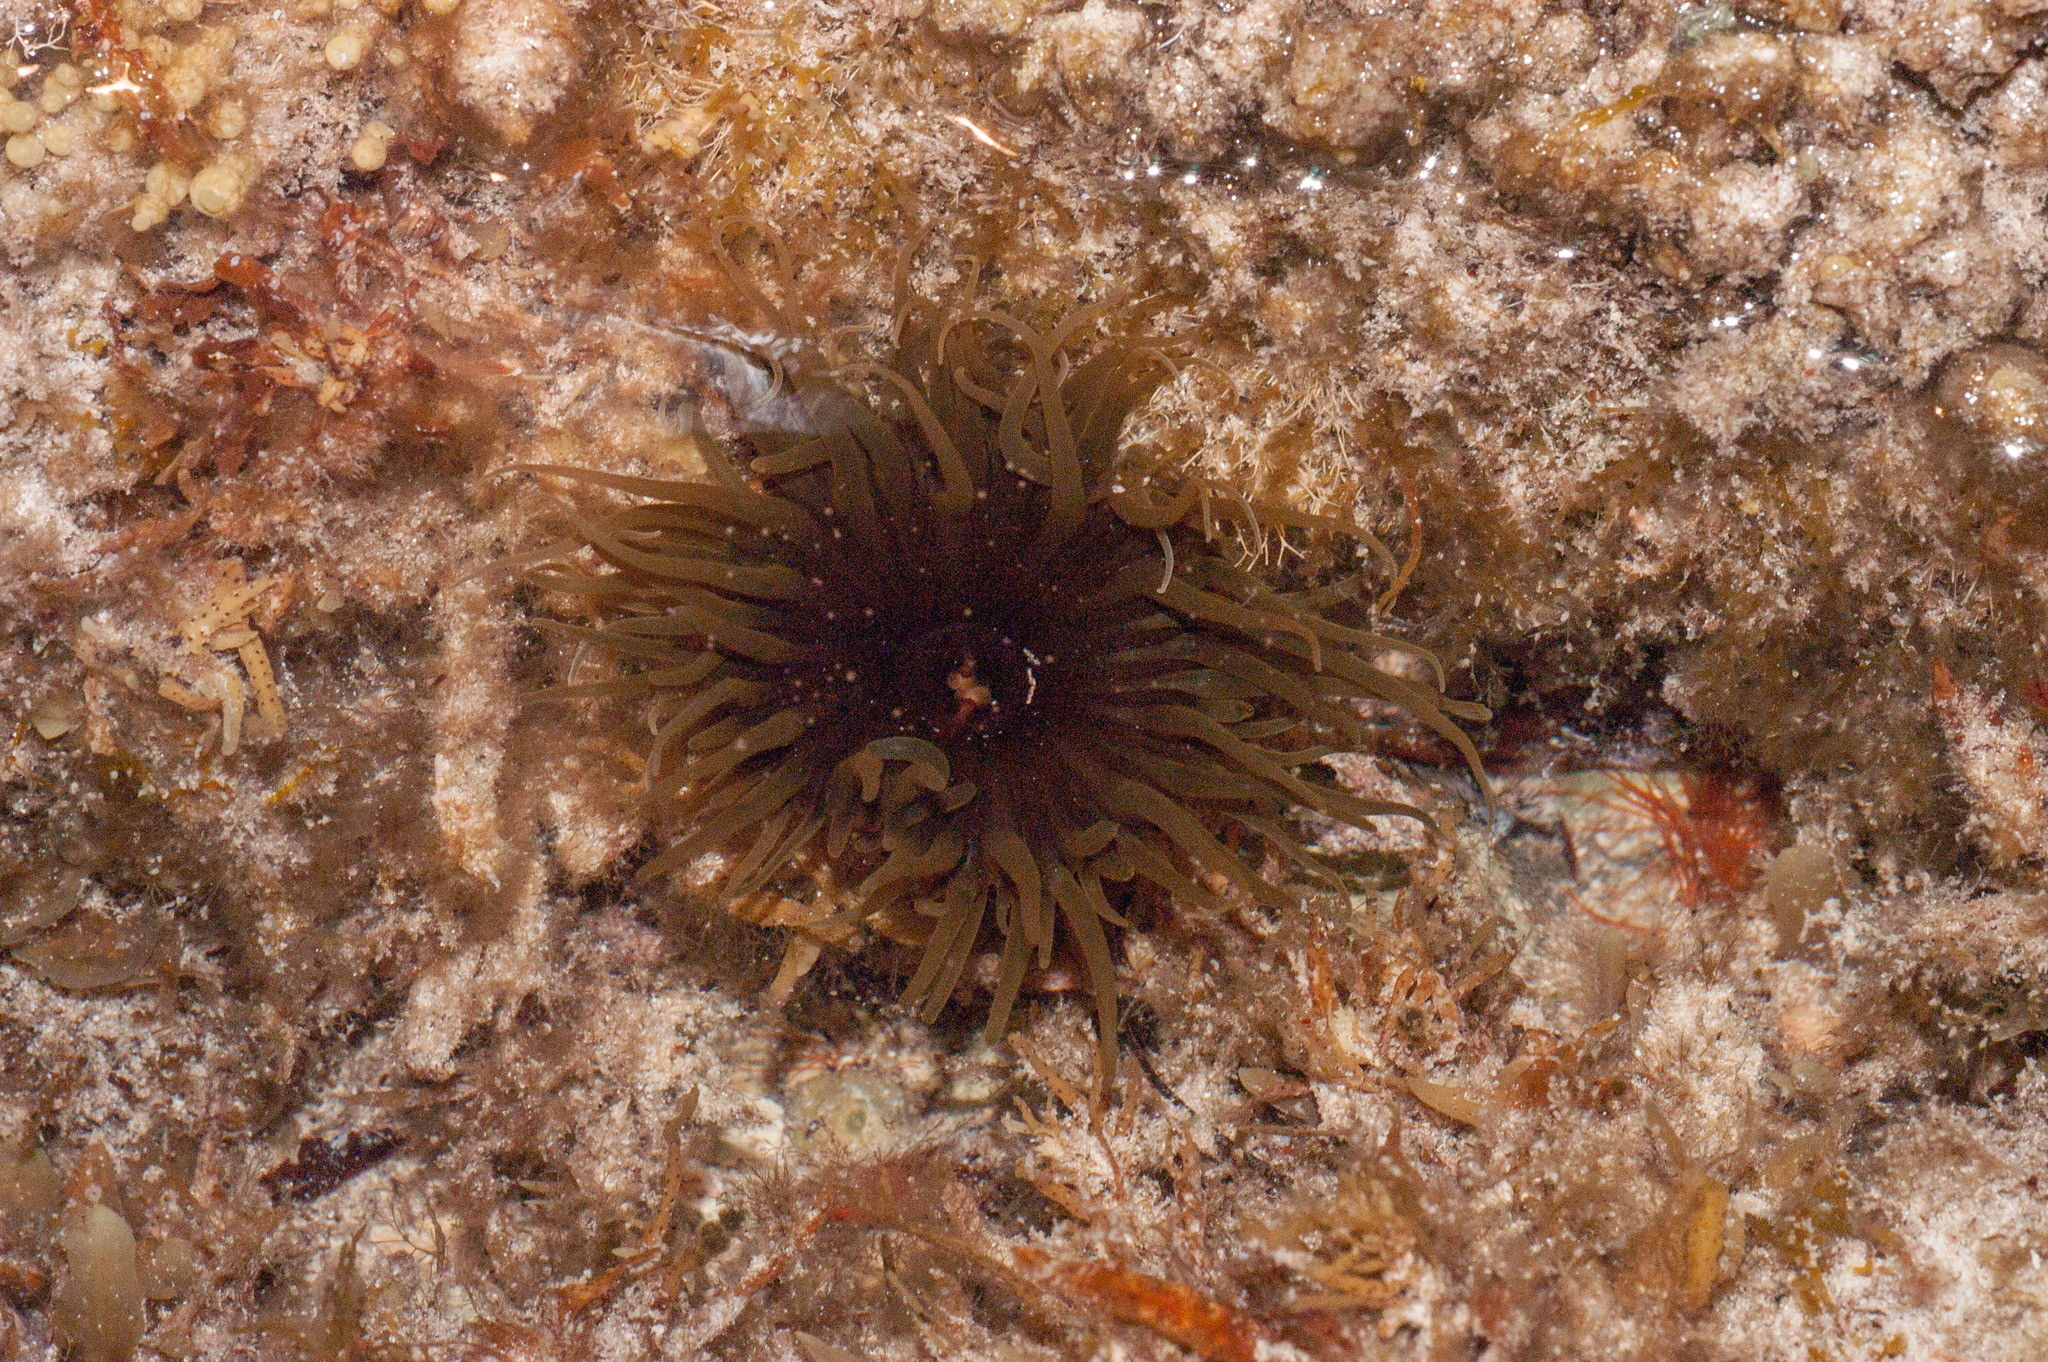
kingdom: Animalia
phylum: Cnidaria
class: Anthozoa
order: Actiniaria
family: Actiniidae
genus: Isanemonia
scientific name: Isanemonia australis
